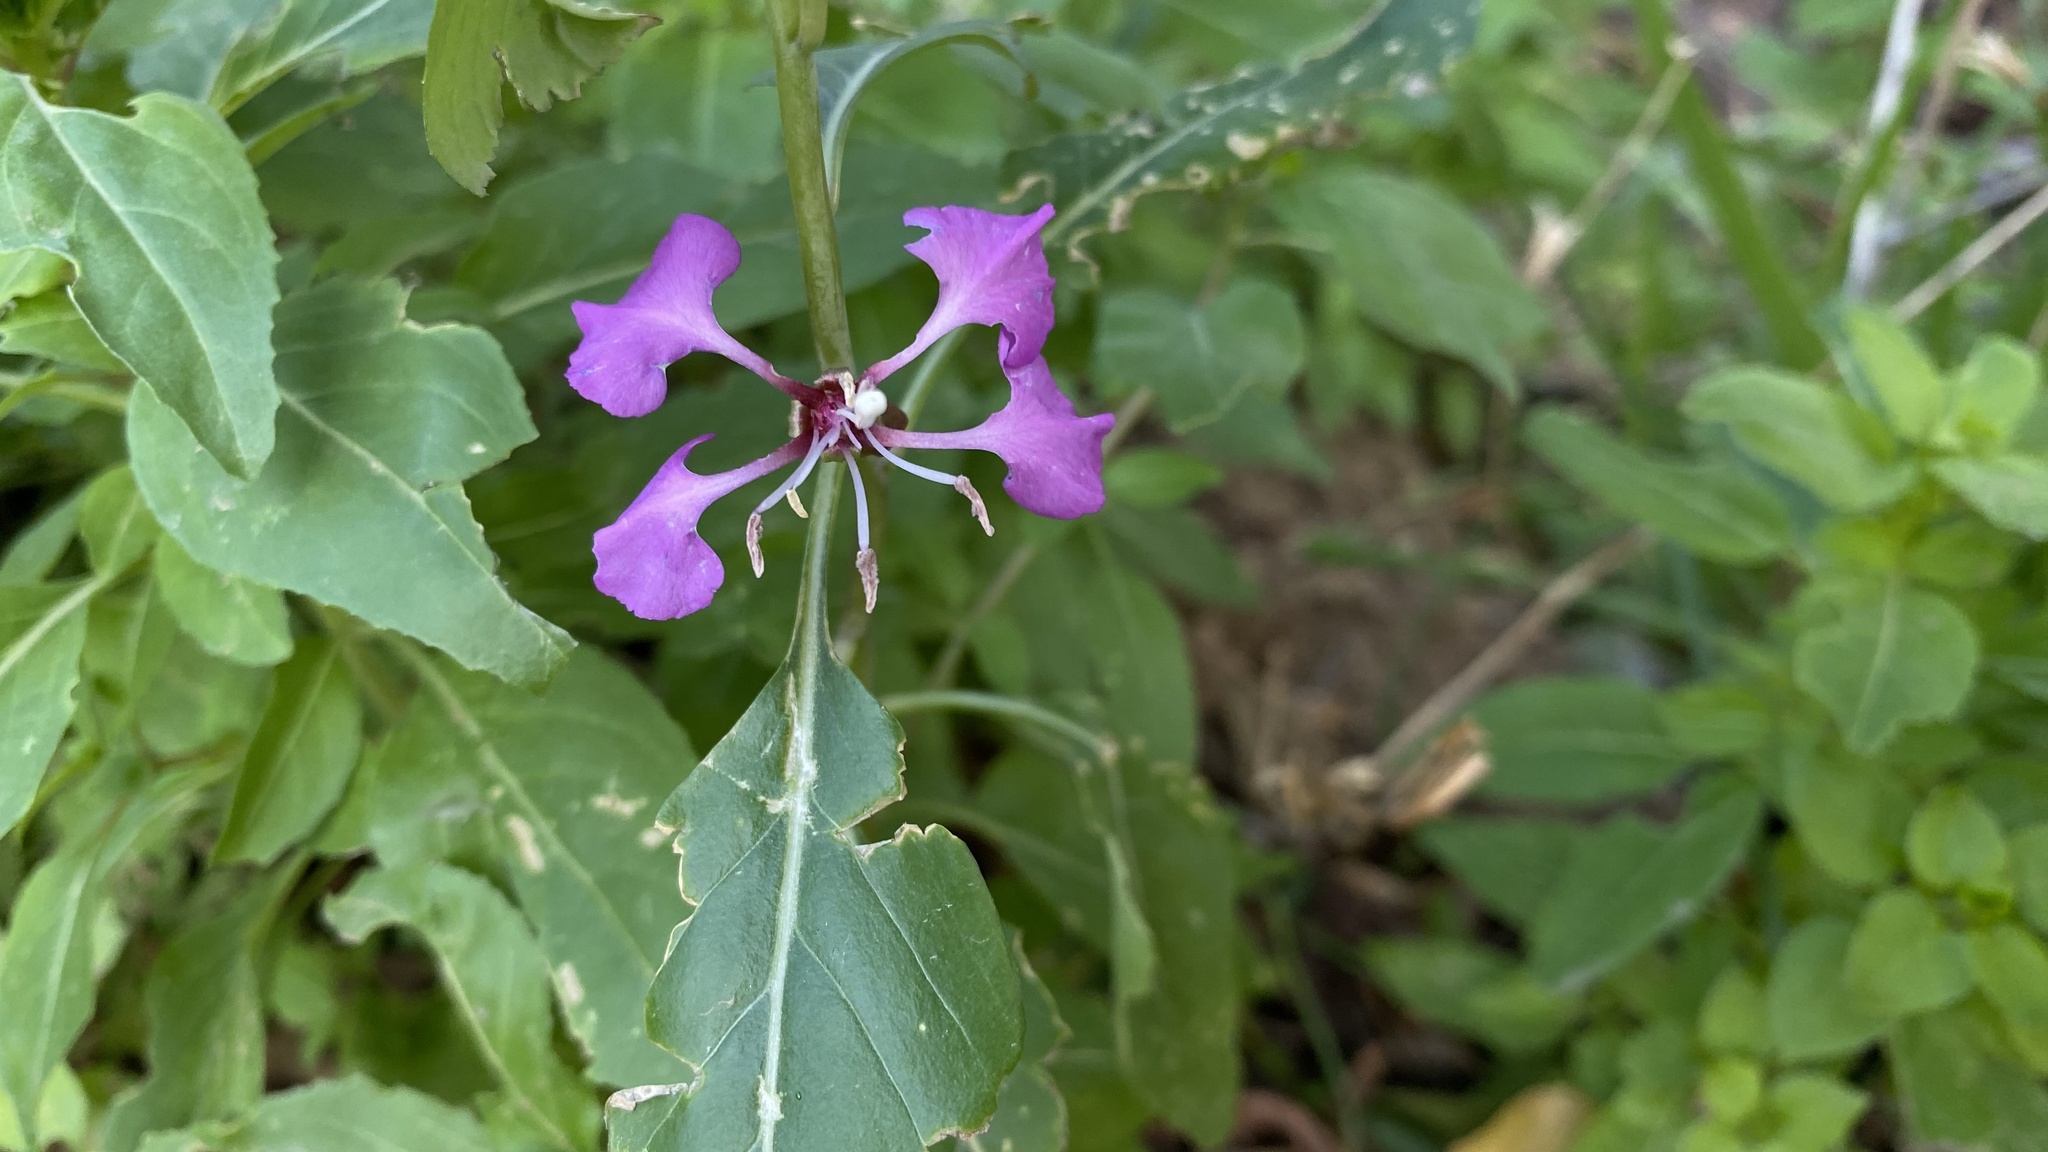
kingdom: Plantae
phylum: Tracheophyta
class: Magnoliopsida
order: Myrtales
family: Onagraceae
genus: Clarkia
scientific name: Clarkia unguiculata
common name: Clarkia
